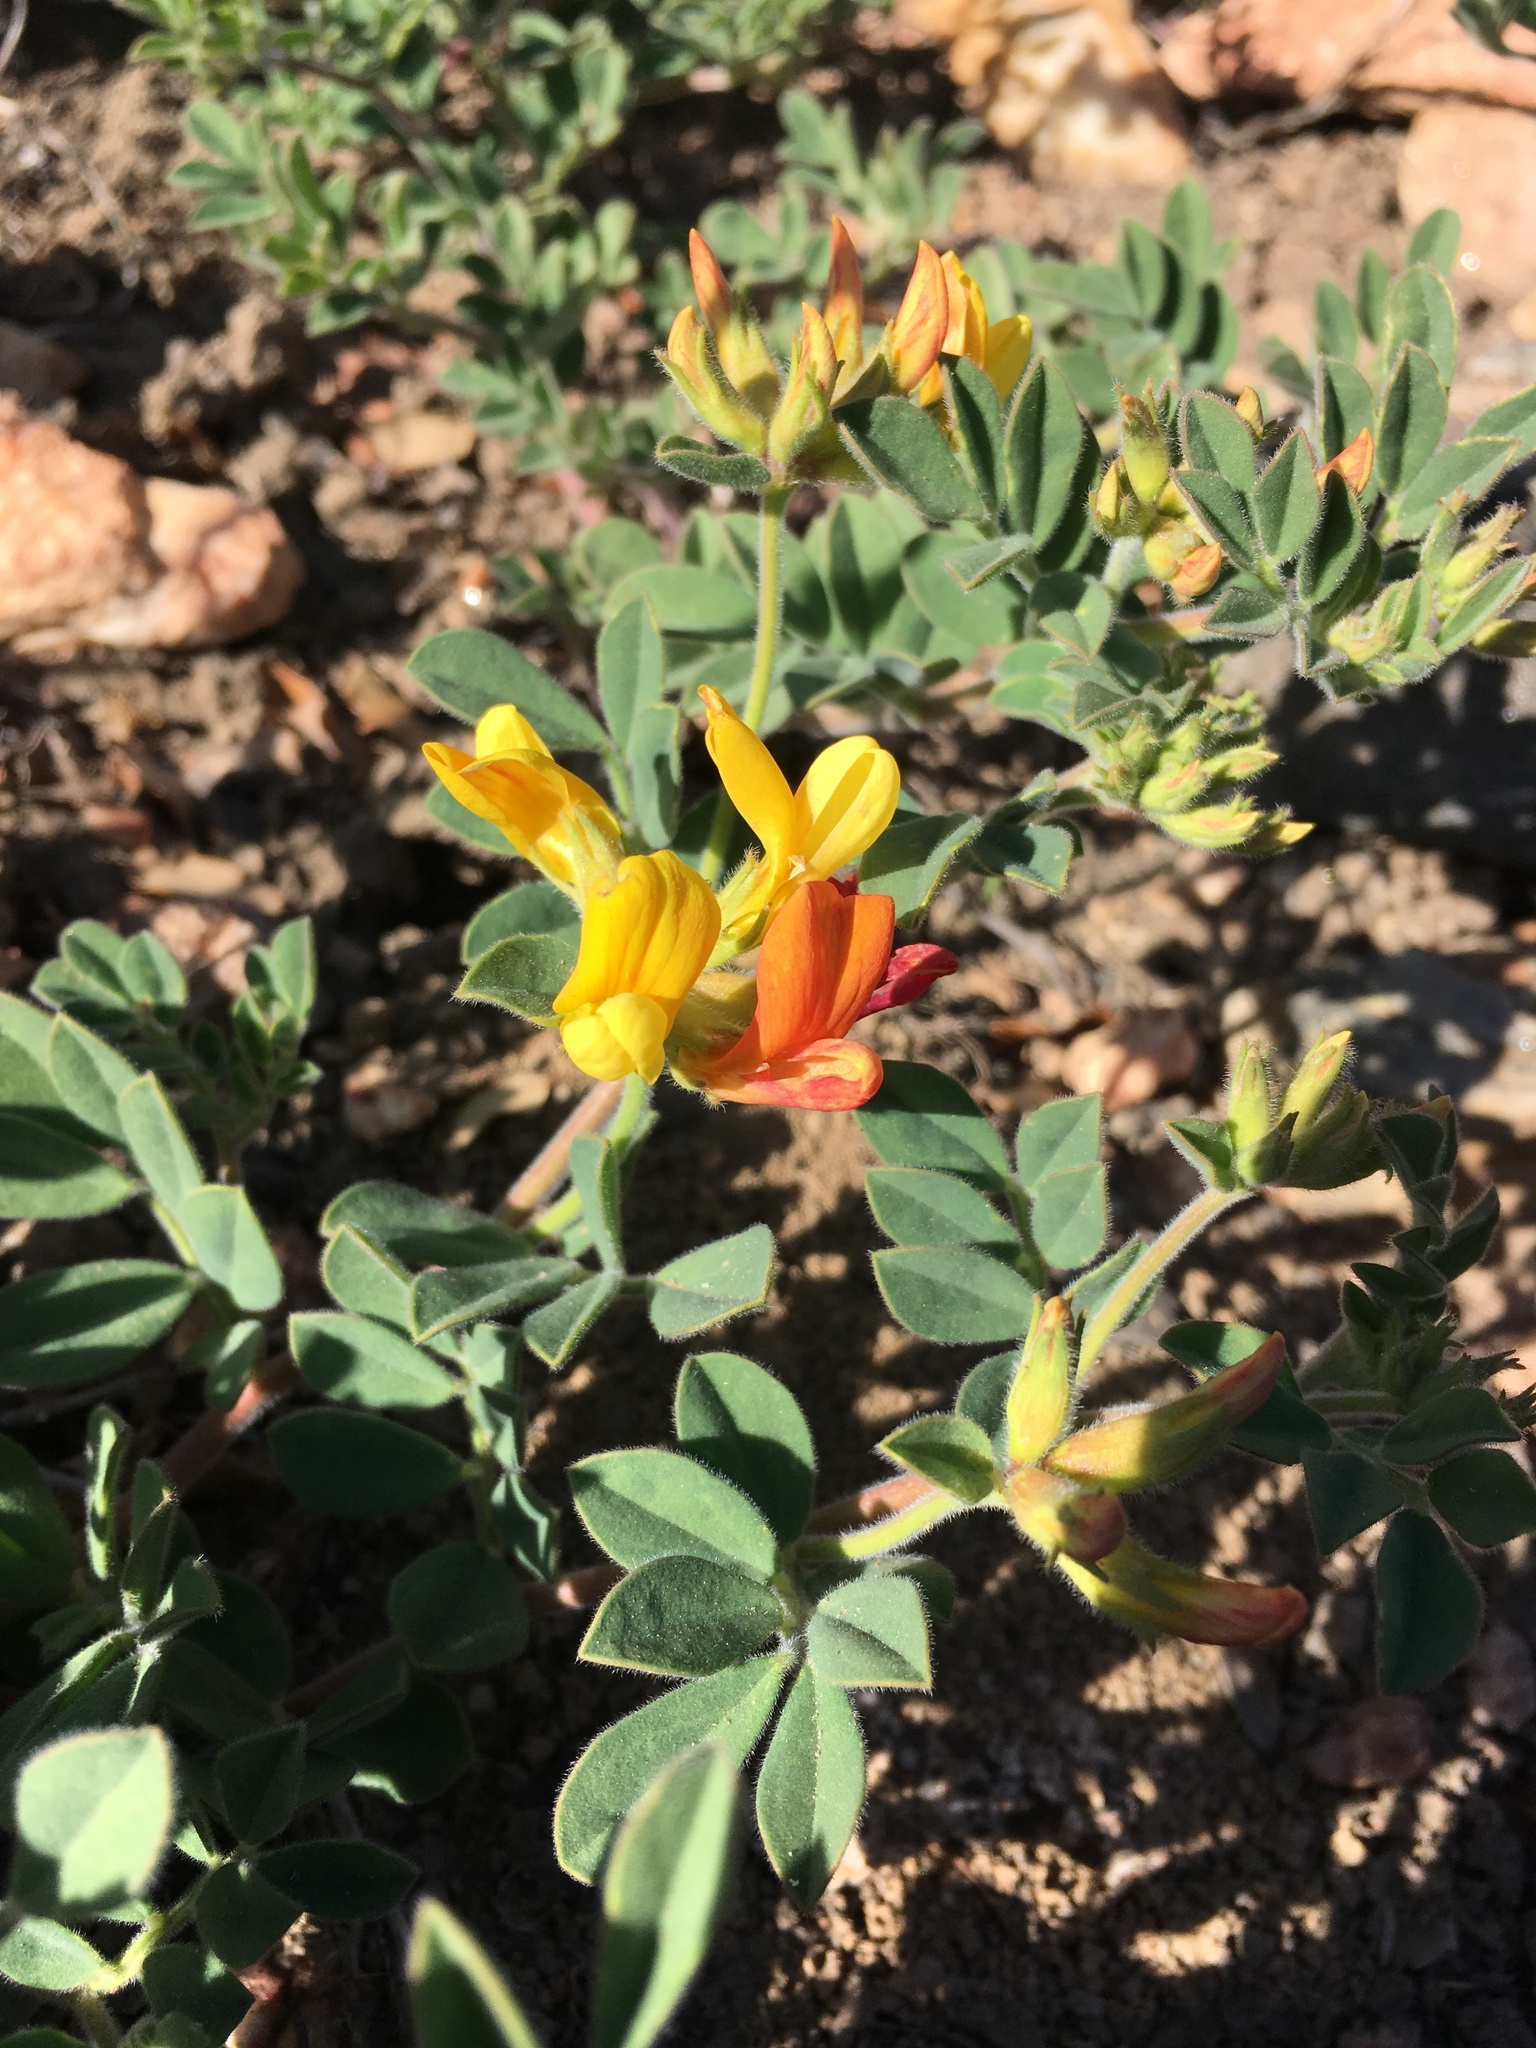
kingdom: Plantae
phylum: Tracheophyta
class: Magnoliopsida
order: Fabales
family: Fabaceae
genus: Acmispon
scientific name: Acmispon grandiflorus
